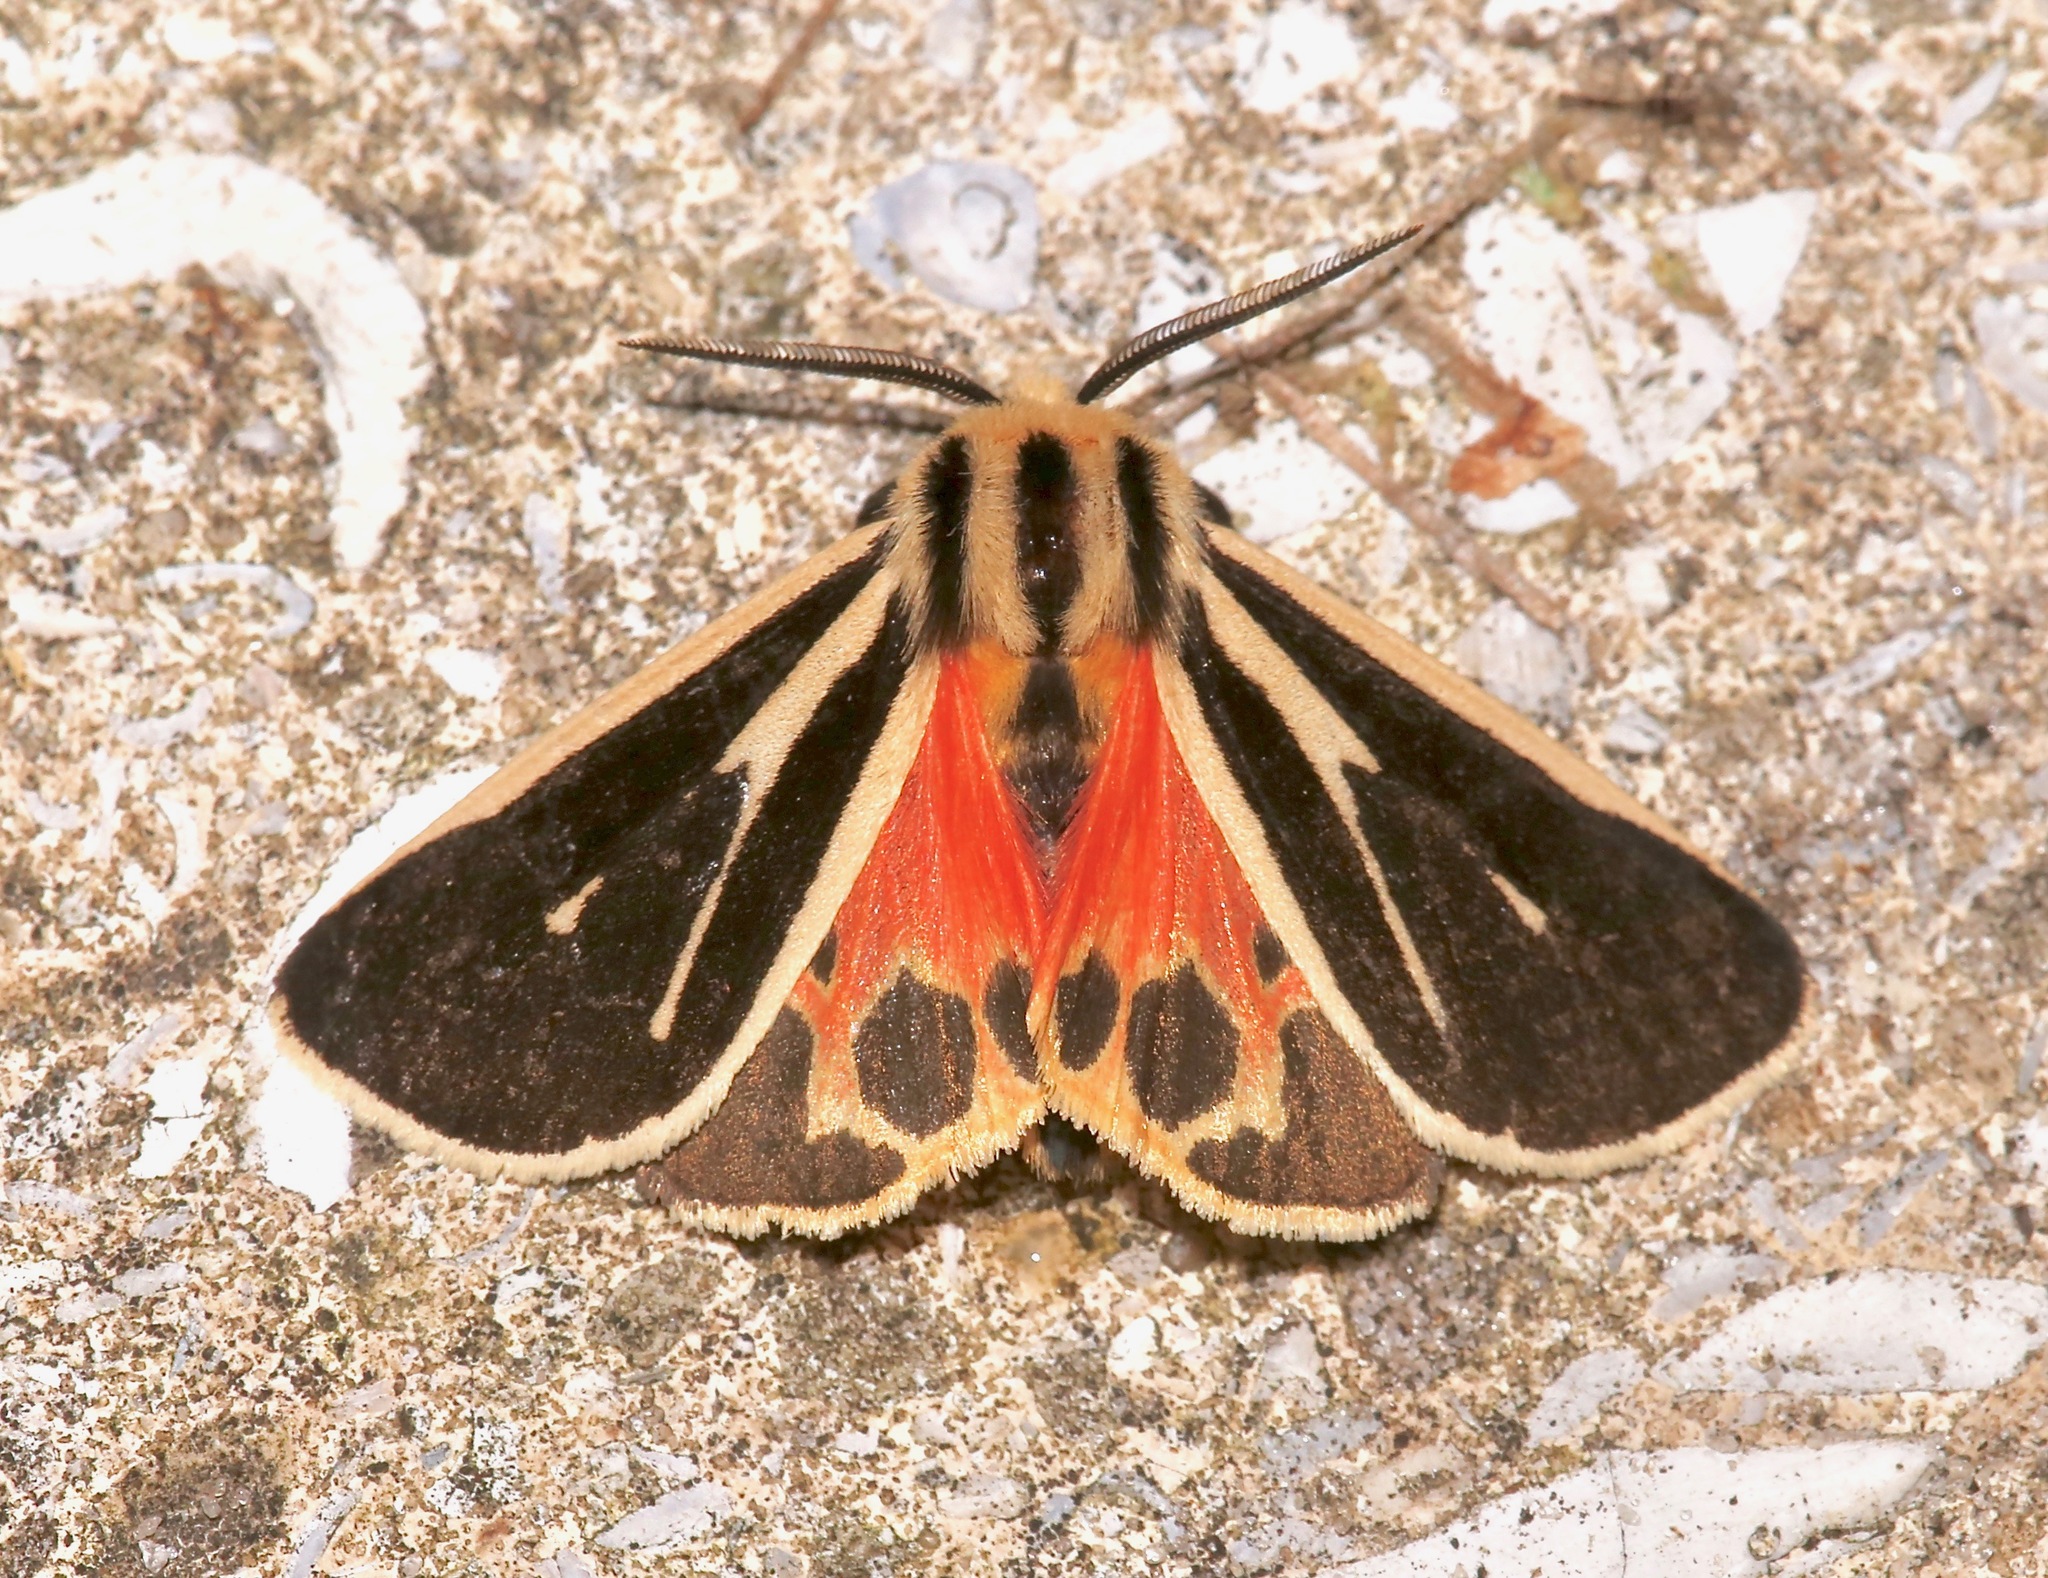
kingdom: Animalia
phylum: Arthropoda
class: Insecta
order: Lepidoptera
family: Erebidae
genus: Apantesis
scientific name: Apantesis vittata
